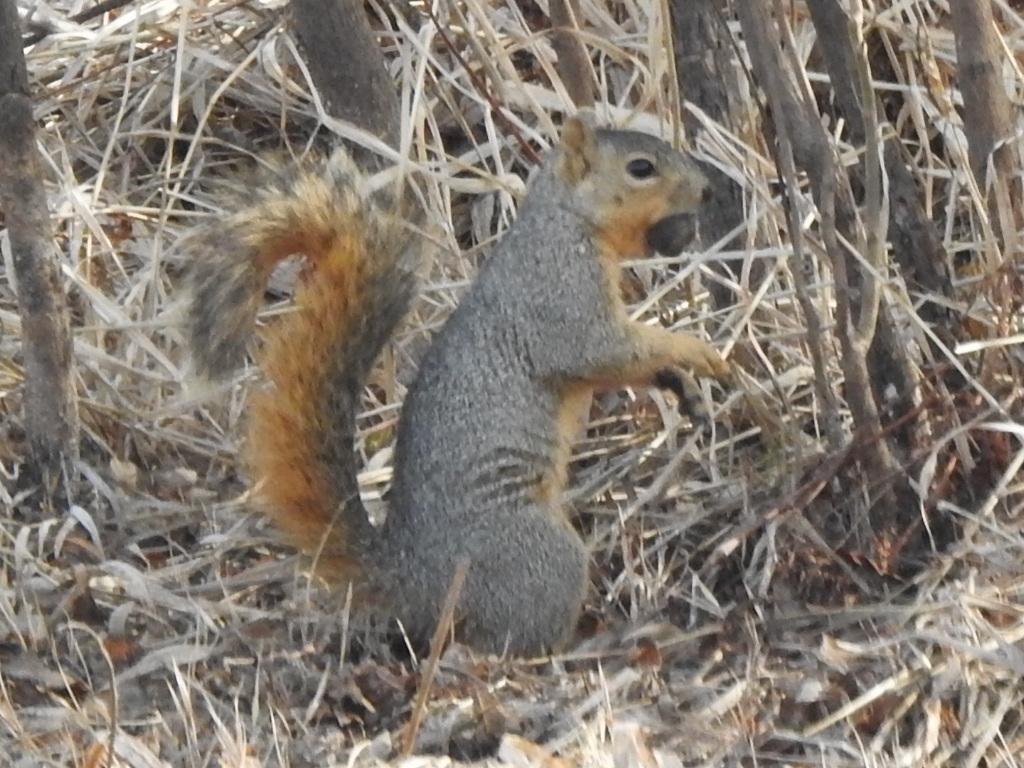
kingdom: Animalia
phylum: Chordata
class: Mammalia
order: Rodentia
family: Sciuridae
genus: Sciurus
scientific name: Sciurus niger
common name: Fox squirrel
